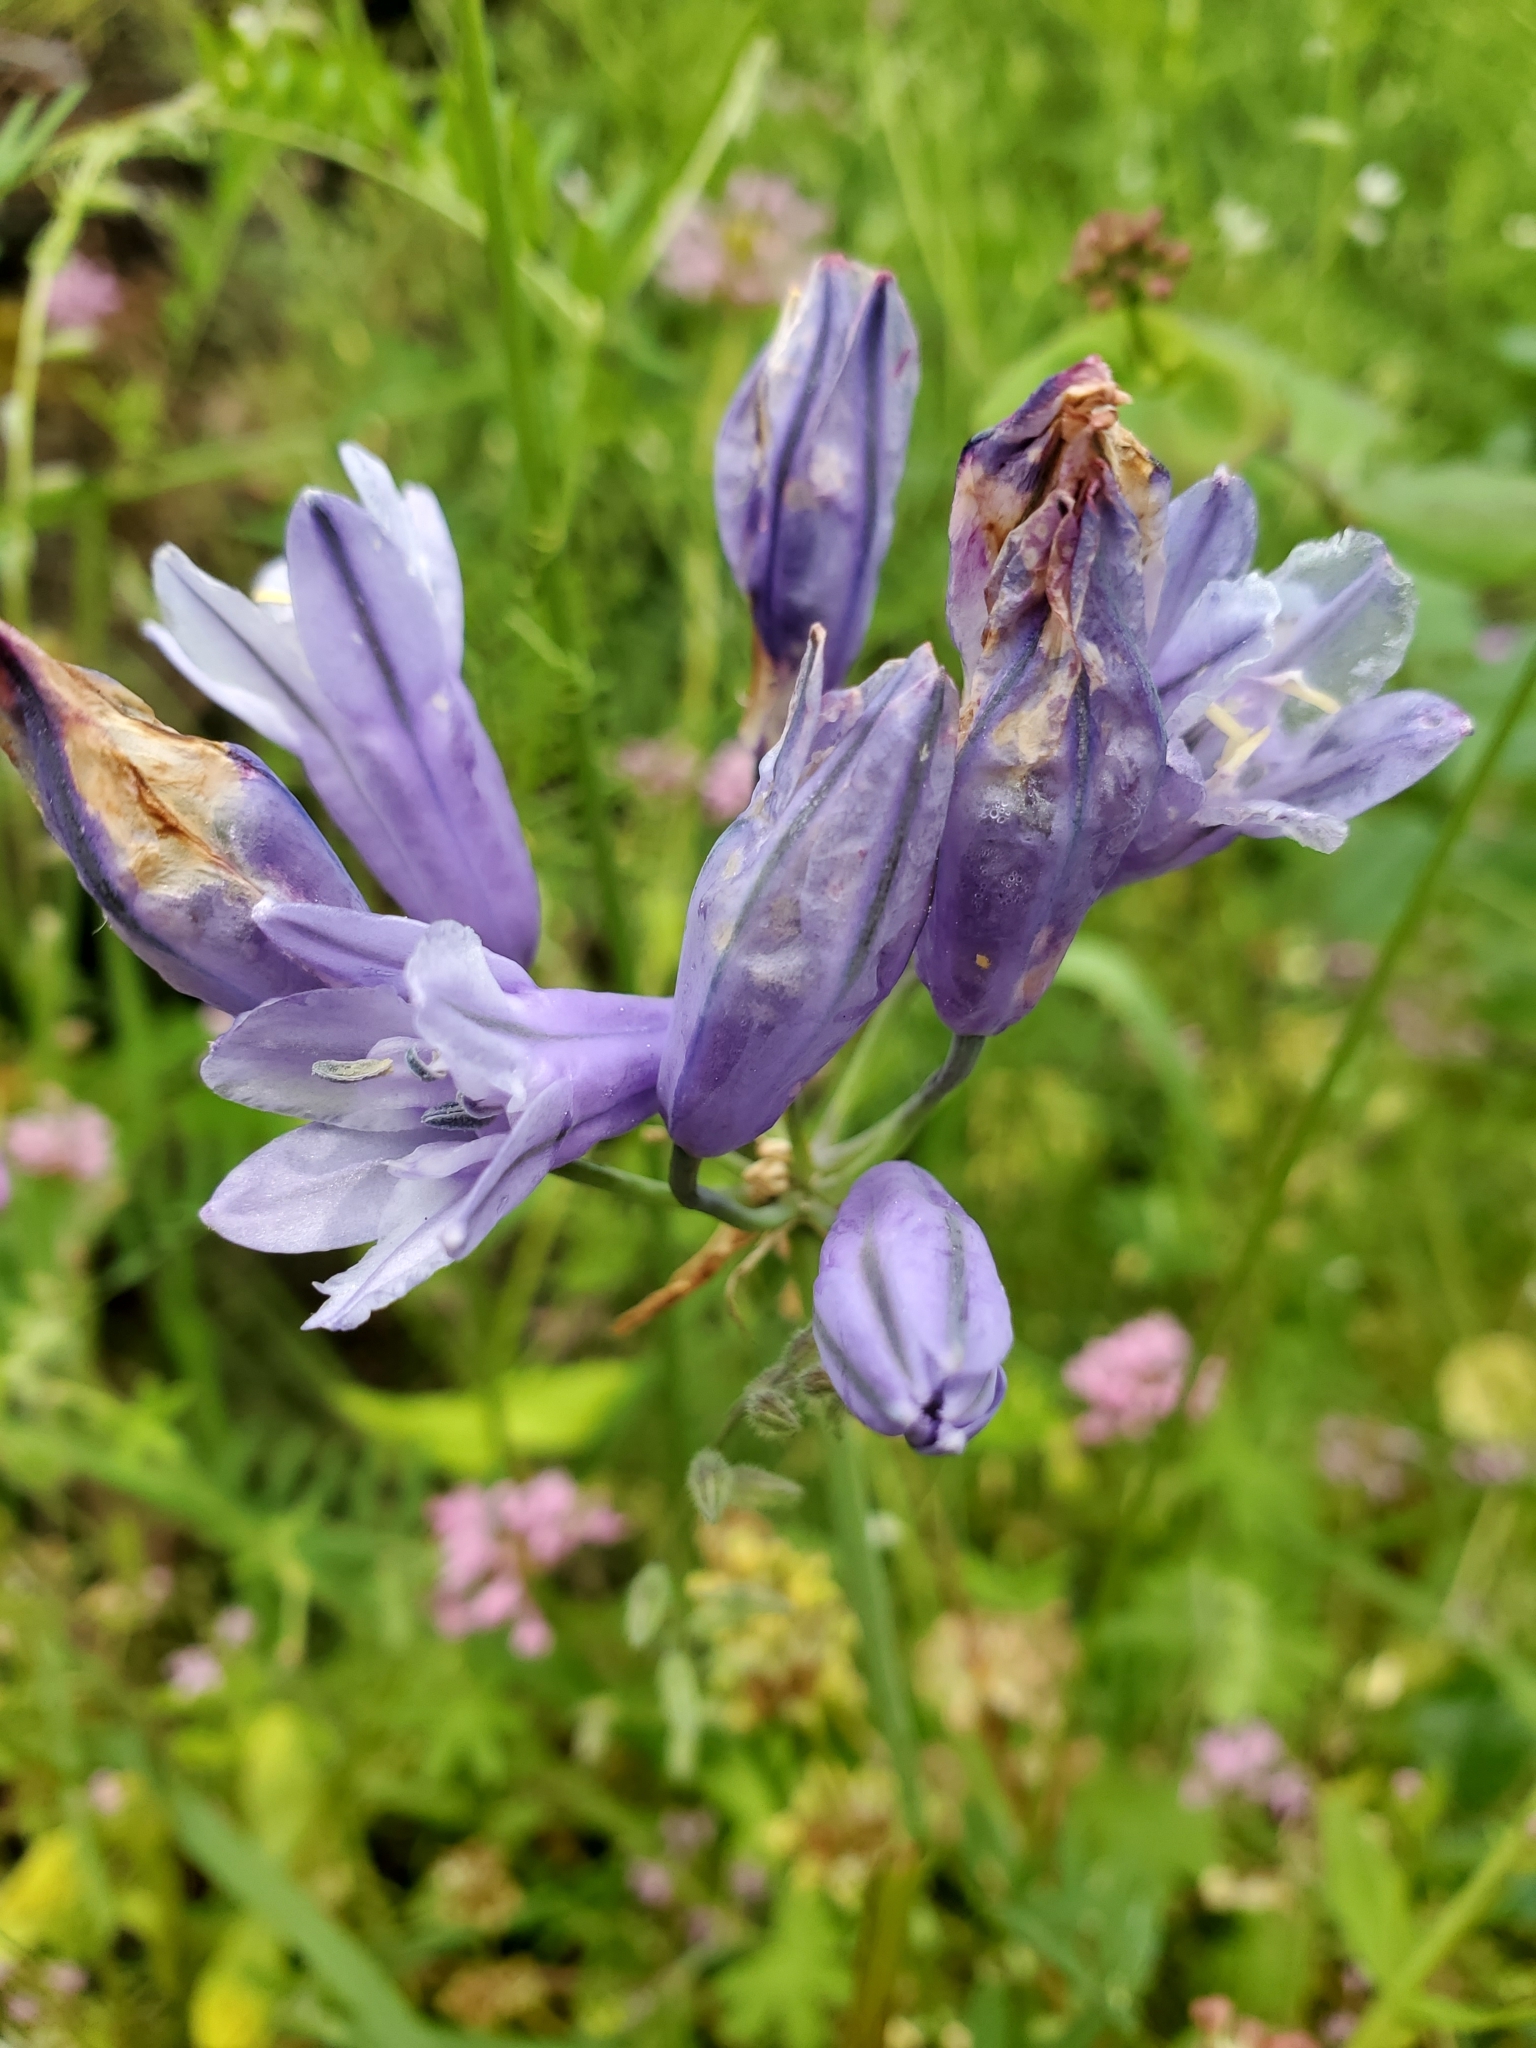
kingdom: Plantae
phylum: Tracheophyta
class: Liliopsida
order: Asparagales
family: Asparagaceae
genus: Triteleia
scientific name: Triteleia grandiflora
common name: Wild hyacinth
